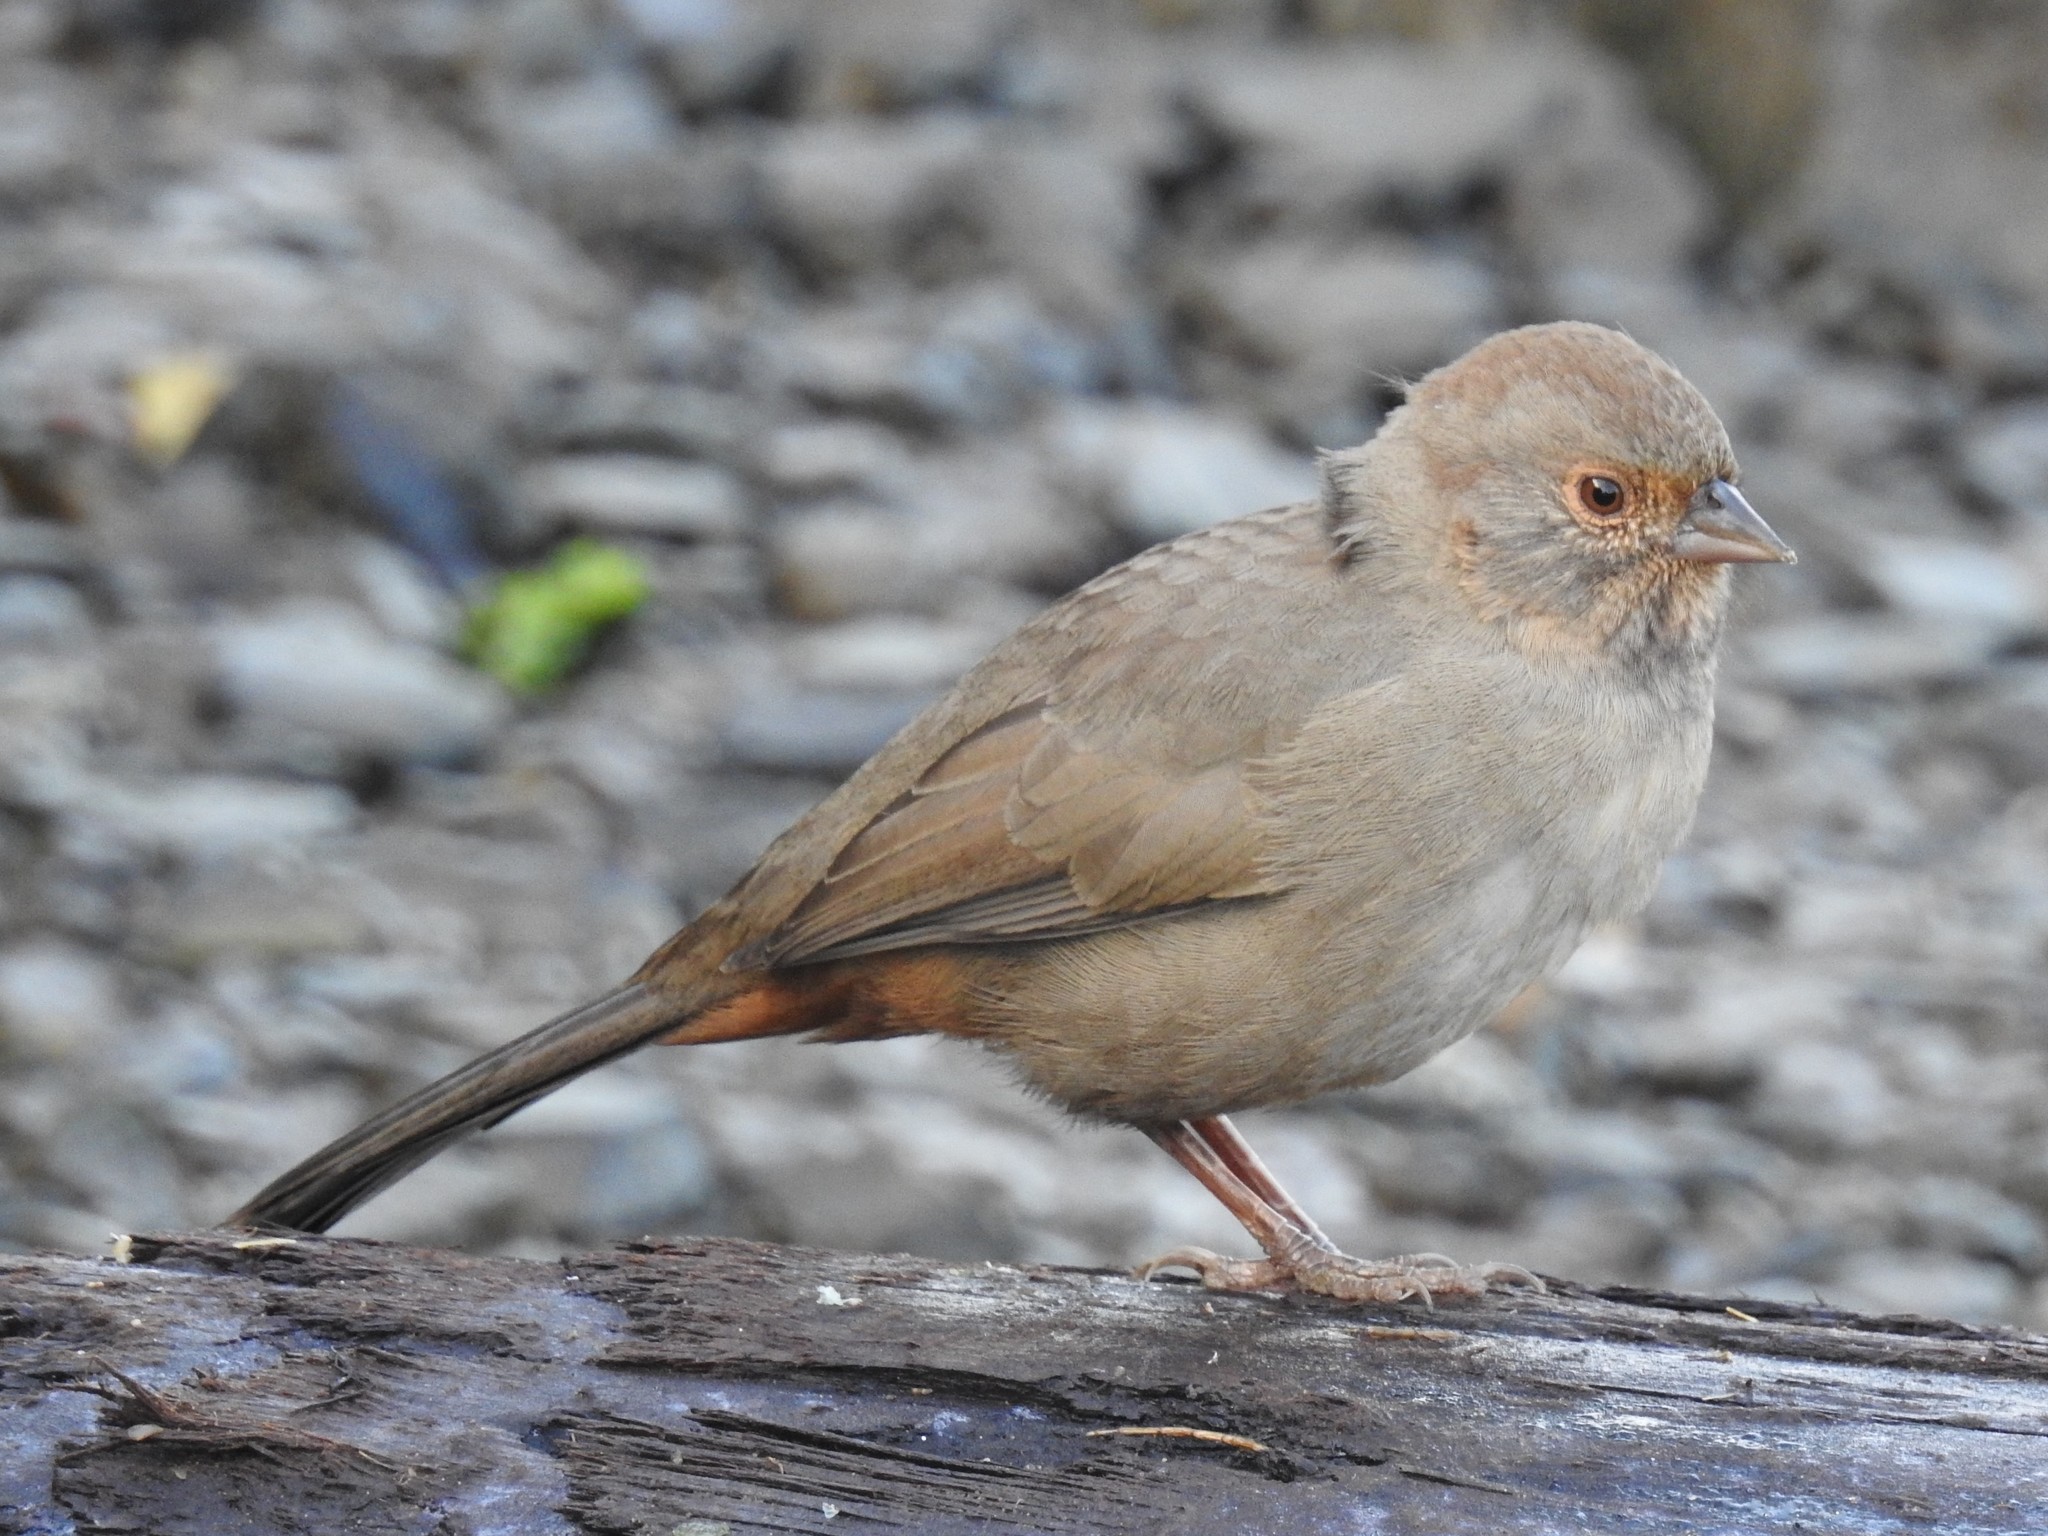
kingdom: Animalia
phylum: Chordata
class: Aves
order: Passeriformes
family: Passerellidae
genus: Melozone
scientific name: Melozone crissalis
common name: California towhee
